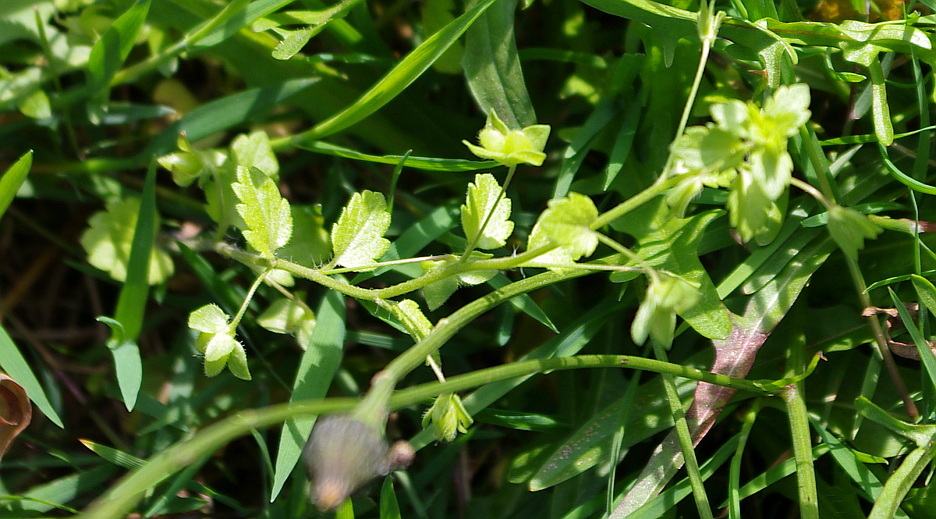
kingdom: Plantae
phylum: Tracheophyta
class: Magnoliopsida
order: Lamiales
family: Plantaginaceae
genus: Veronica
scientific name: Veronica persica
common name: Common field-speedwell
